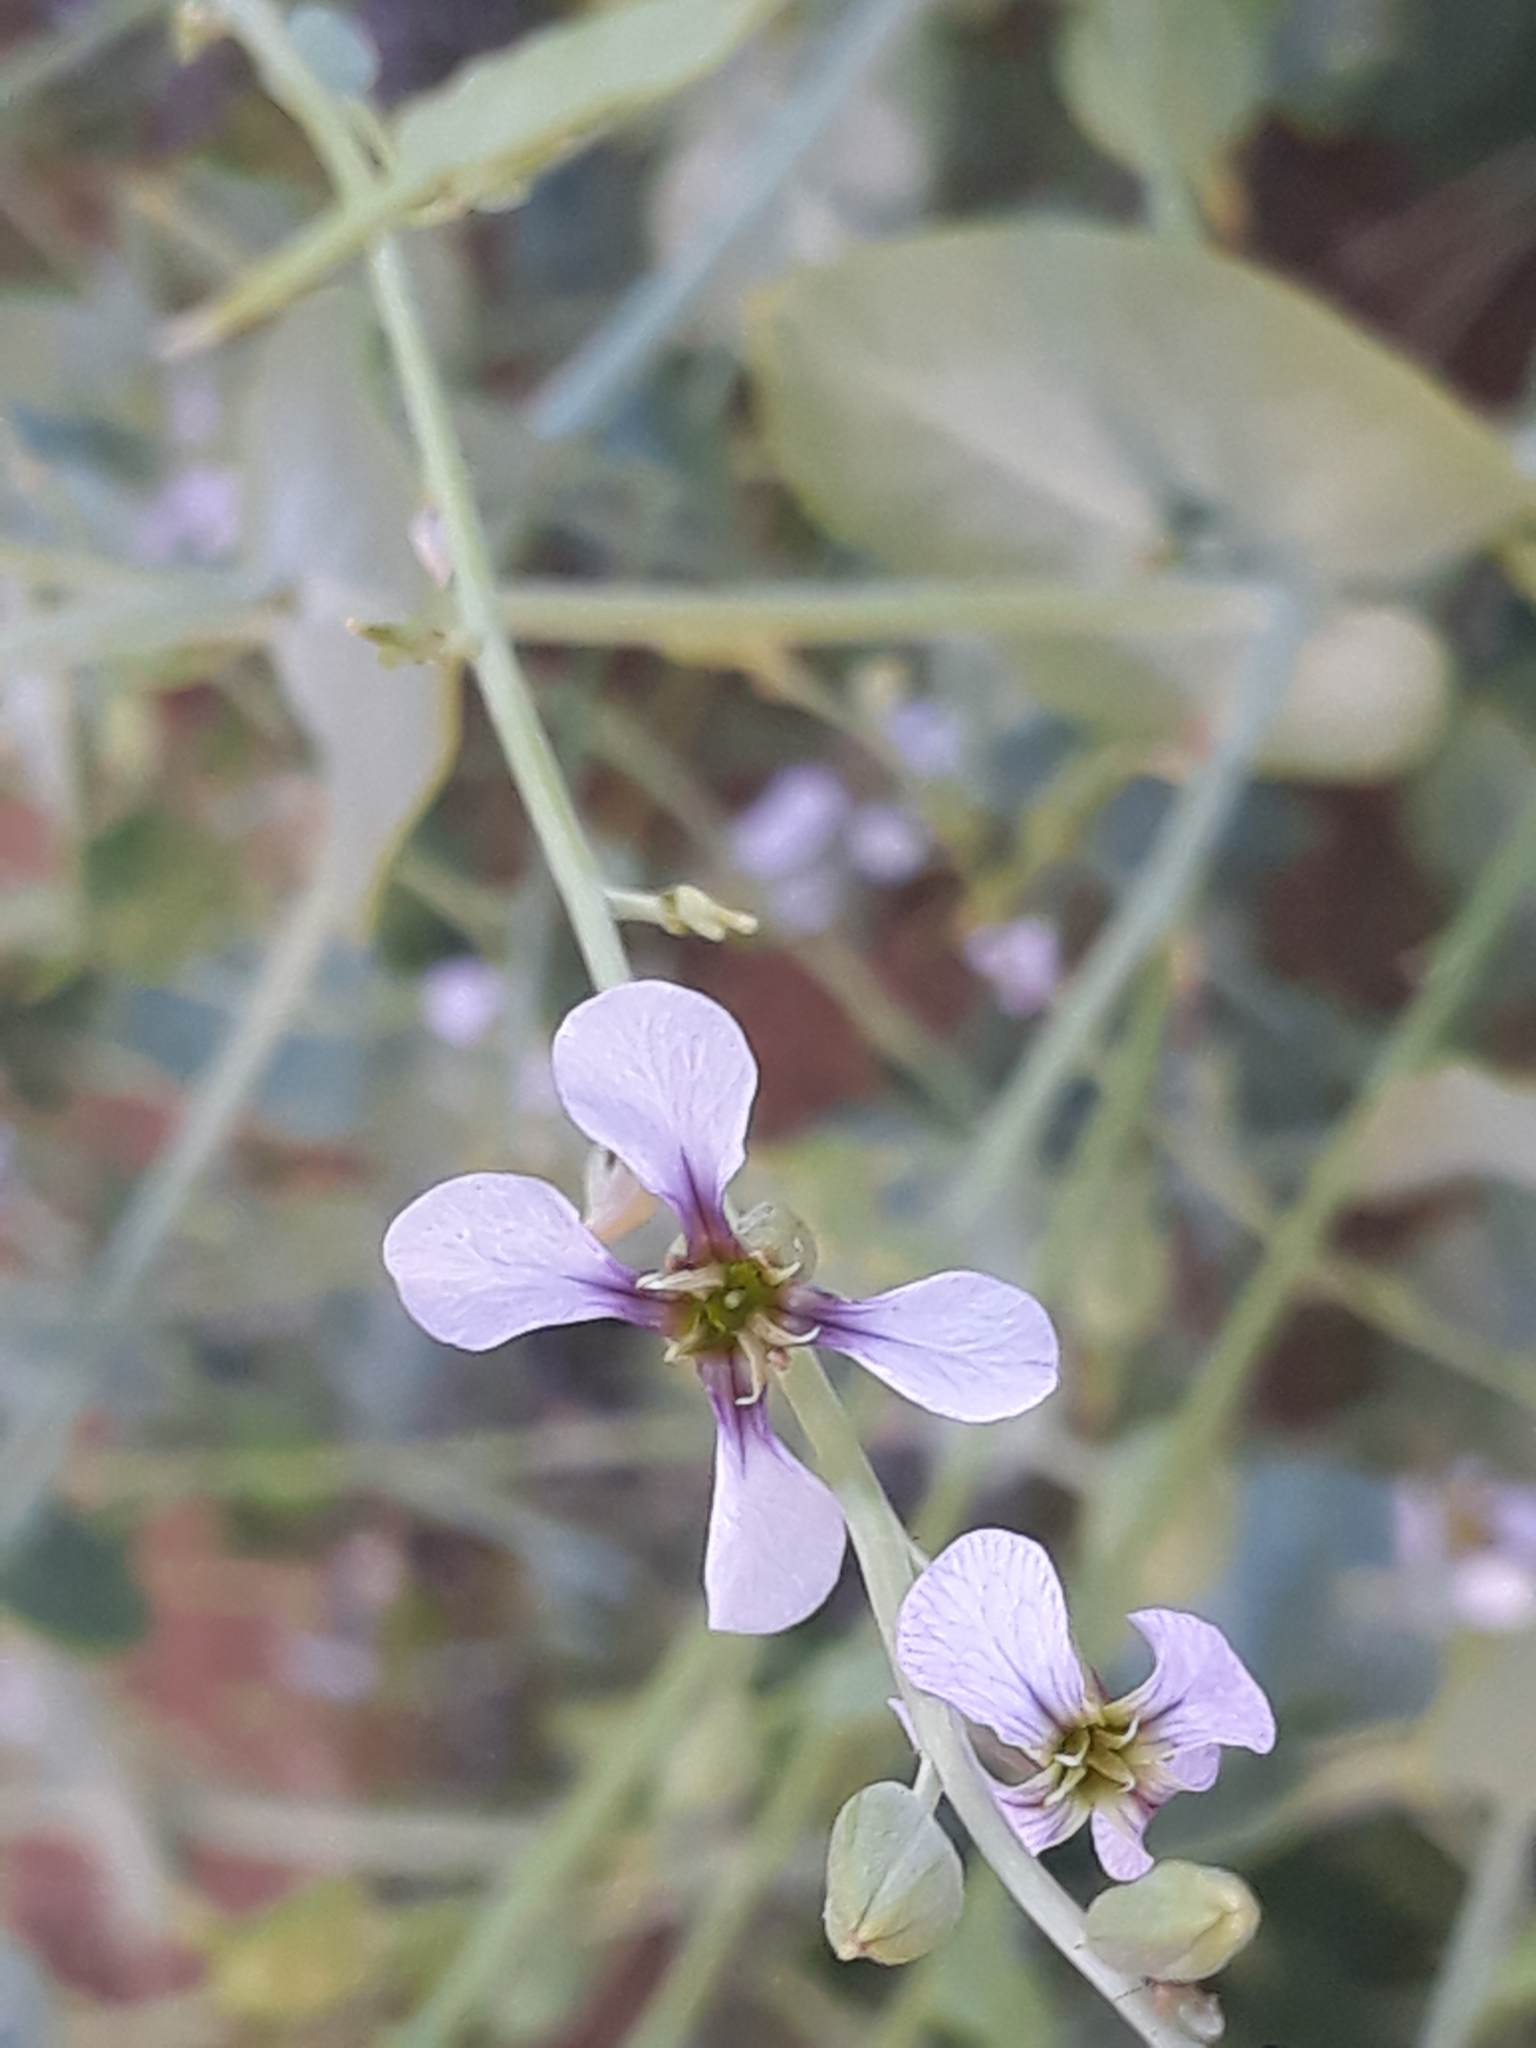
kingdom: Plantae
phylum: Tracheophyta
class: Magnoliopsida
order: Brassicales
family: Brassicaceae
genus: Schouwia
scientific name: Schouwia purpurea
